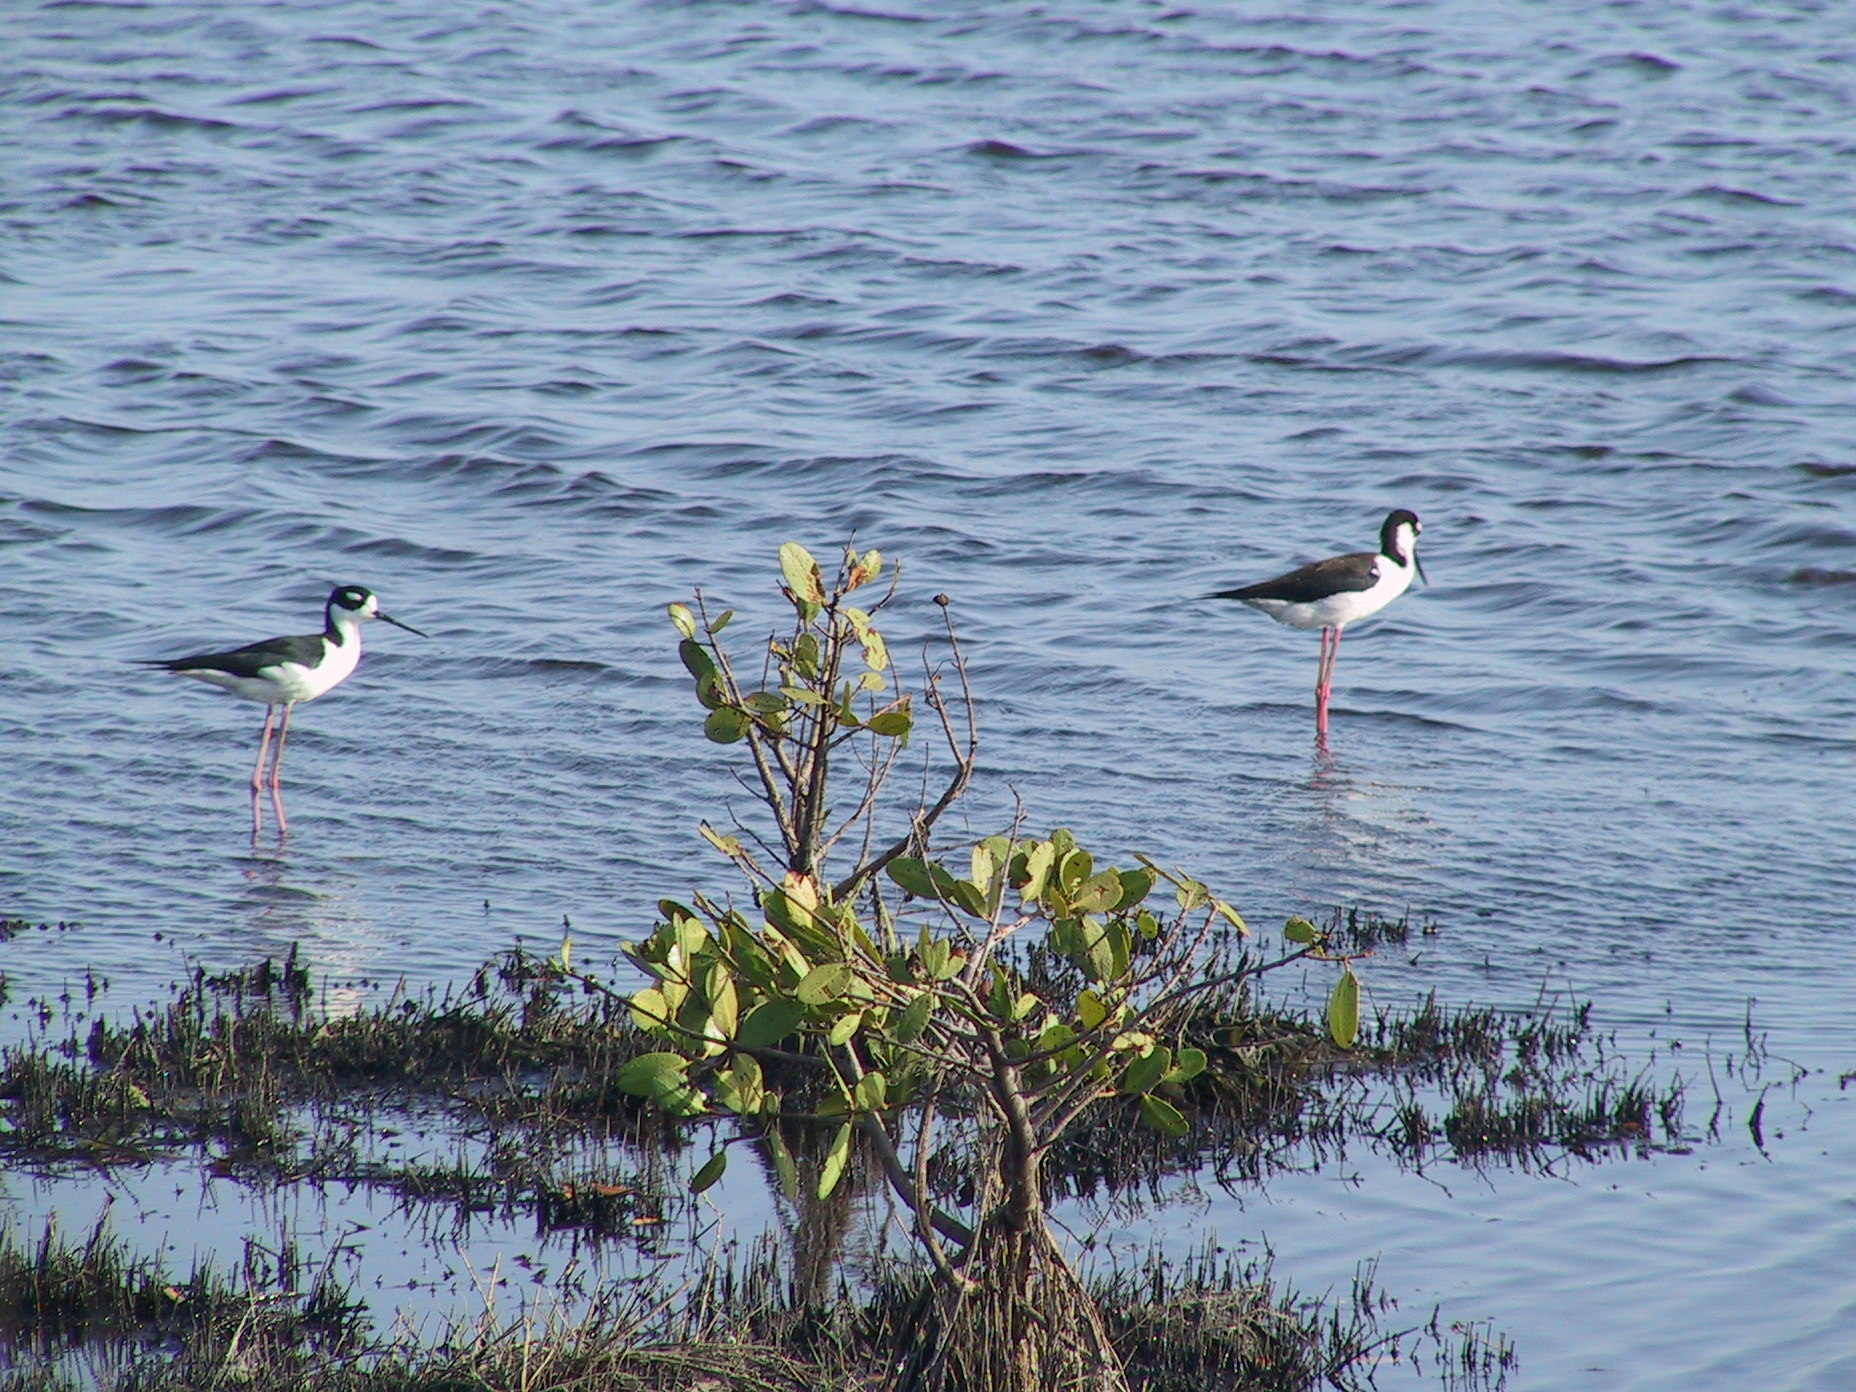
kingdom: Animalia
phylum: Chordata
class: Aves
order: Charadriiformes
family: Recurvirostridae
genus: Himantopus
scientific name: Himantopus mexicanus
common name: Black-necked stilt
